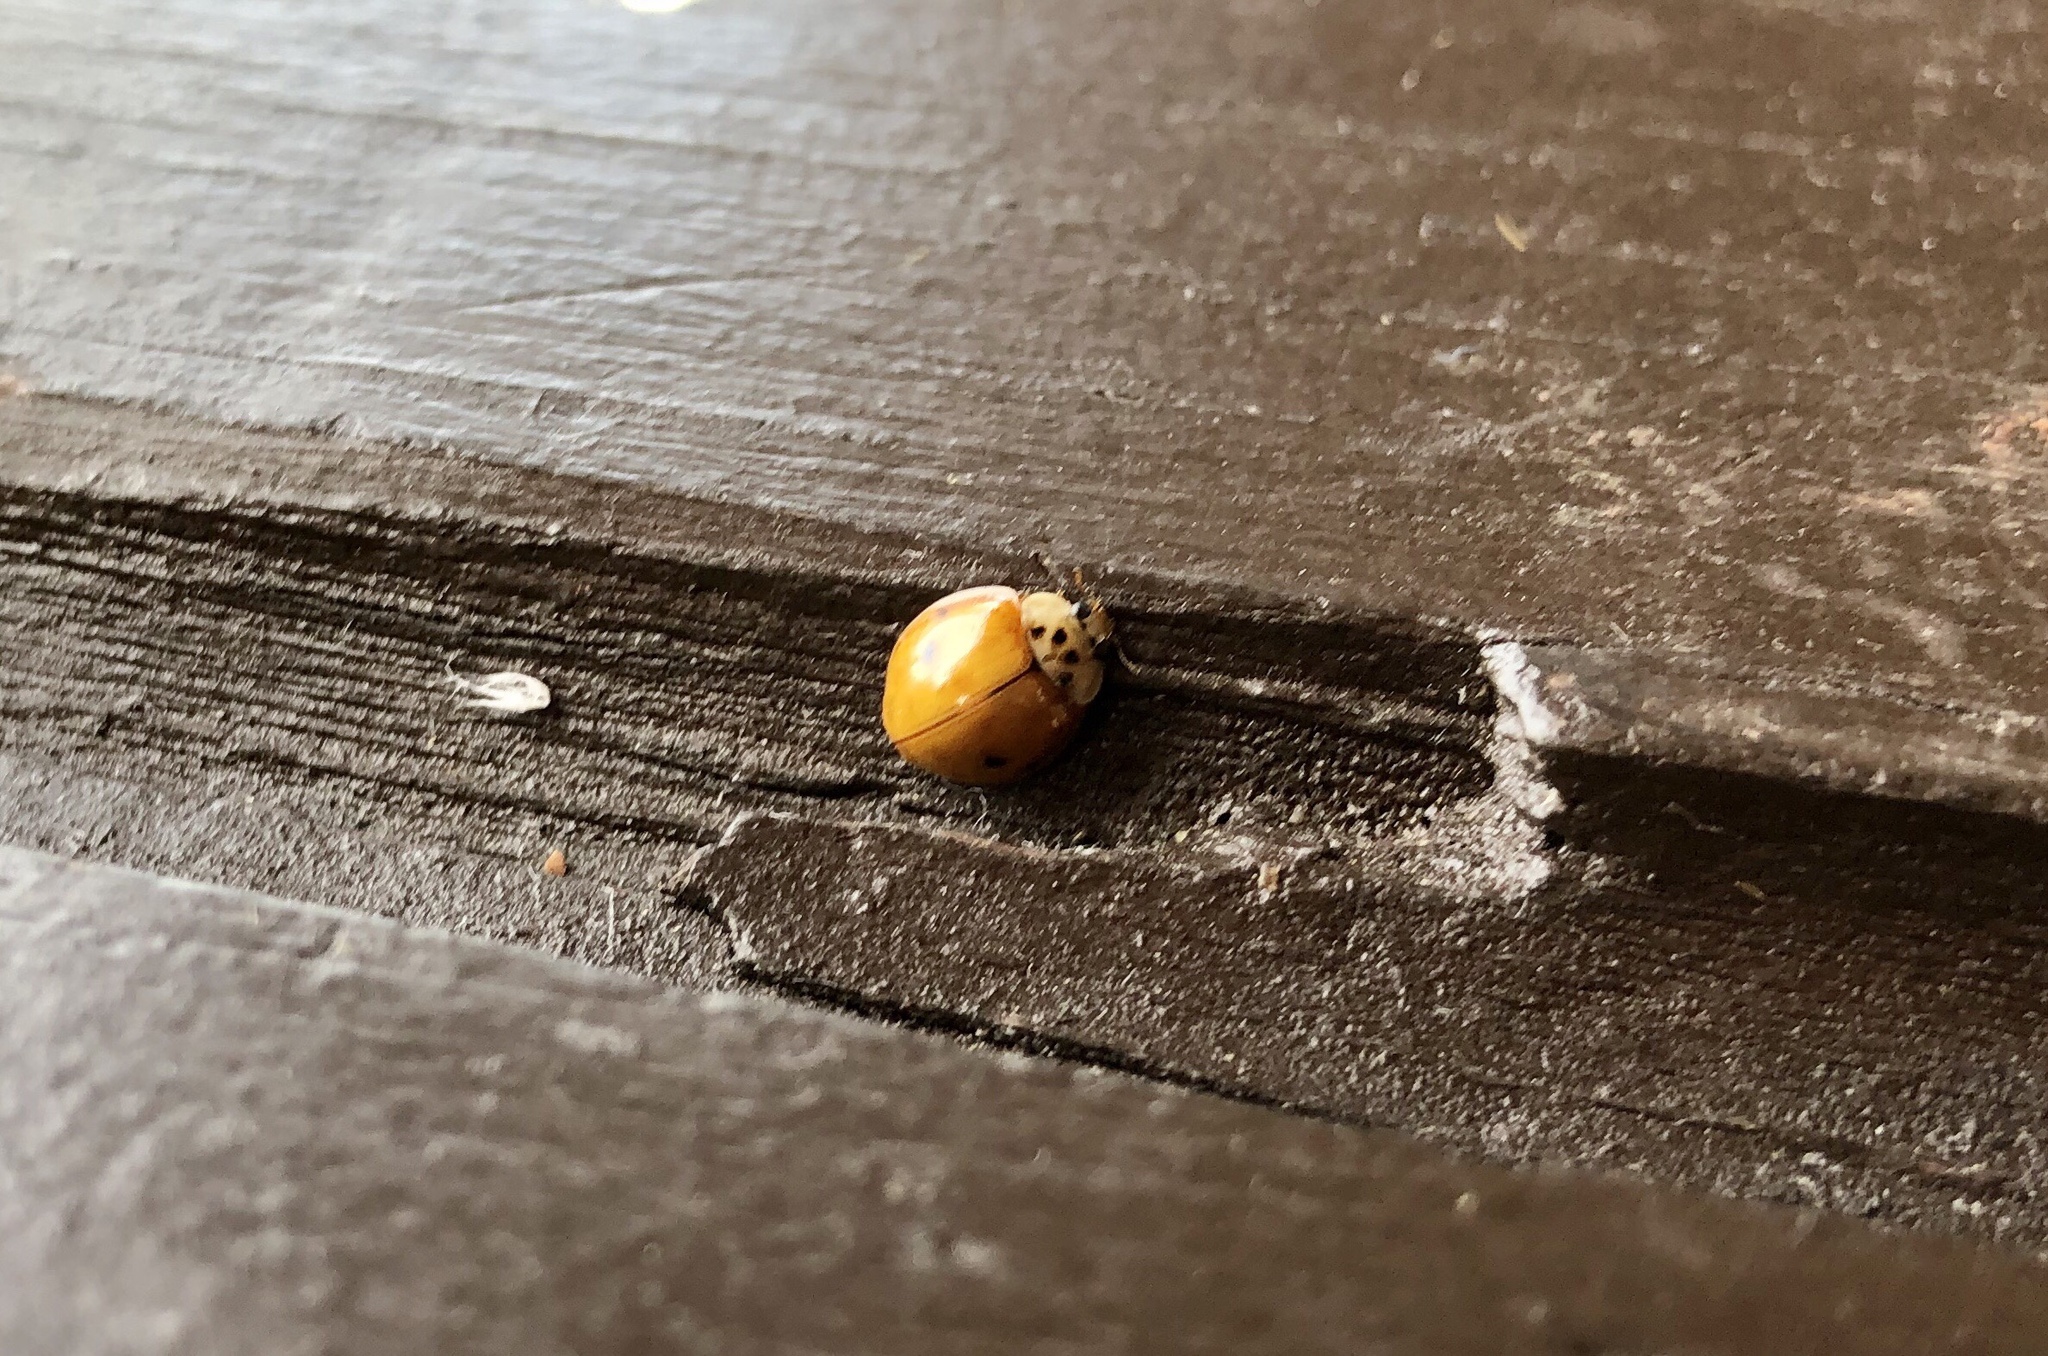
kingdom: Animalia
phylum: Arthropoda
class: Insecta
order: Coleoptera
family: Coccinellidae
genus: Harmonia
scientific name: Harmonia axyridis
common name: Harlequin ladybird
